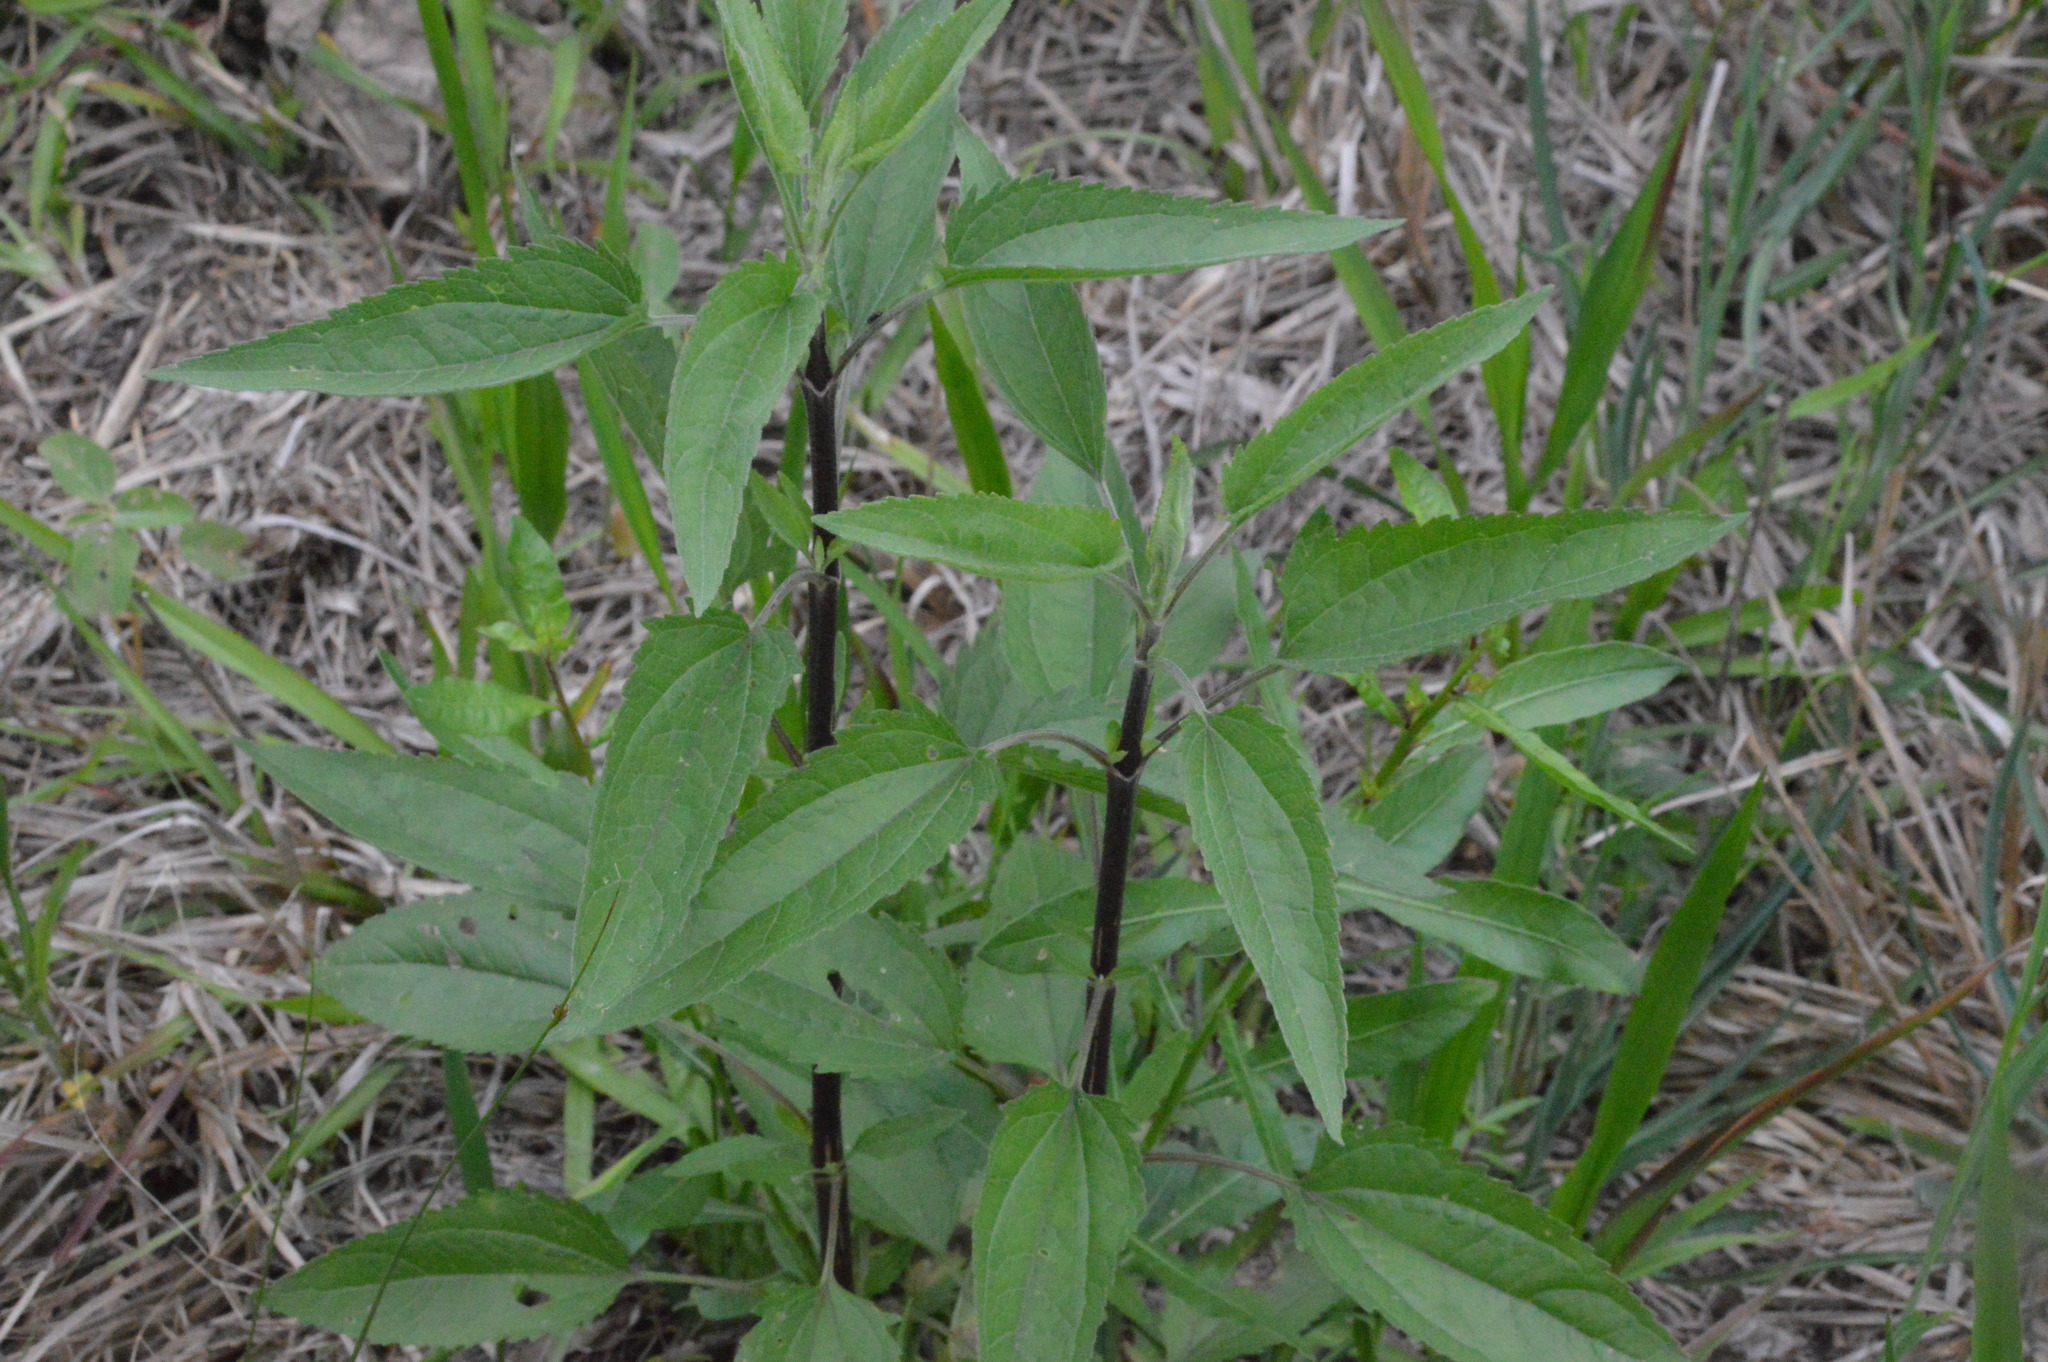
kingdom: Plantae
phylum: Tracheophyta
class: Magnoliopsida
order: Asterales
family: Asteraceae
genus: Eupatorium
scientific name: Eupatorium serotinum
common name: Late boneset
